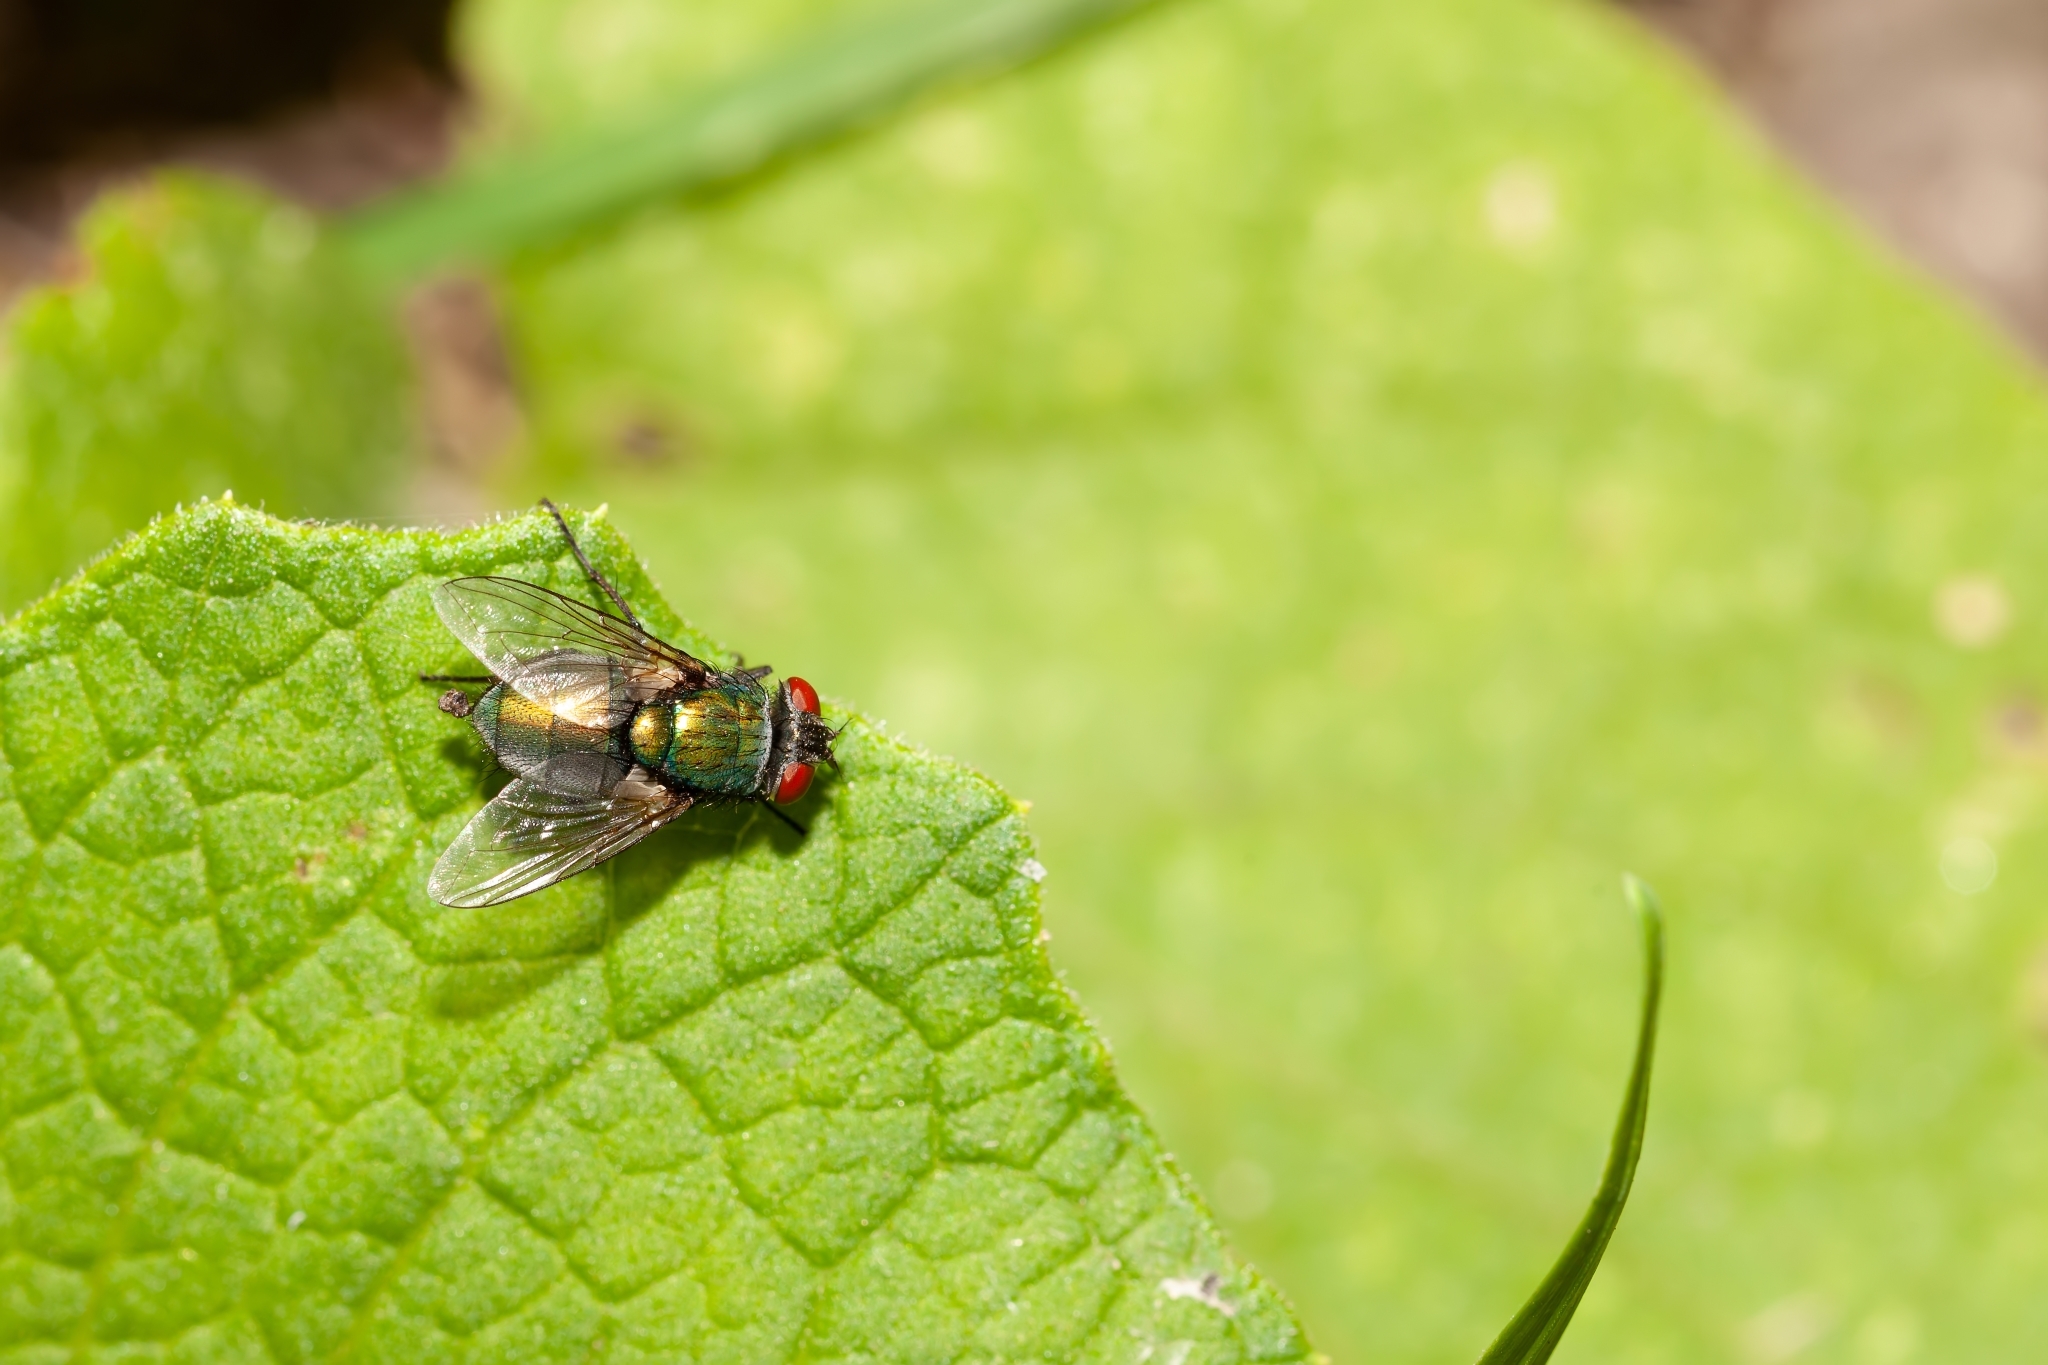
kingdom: Animalia
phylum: Arthropoda
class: Insecta
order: Diptera
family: Calliphoridae
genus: Lucilia
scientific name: Lucilia sericata
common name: Blow fly
